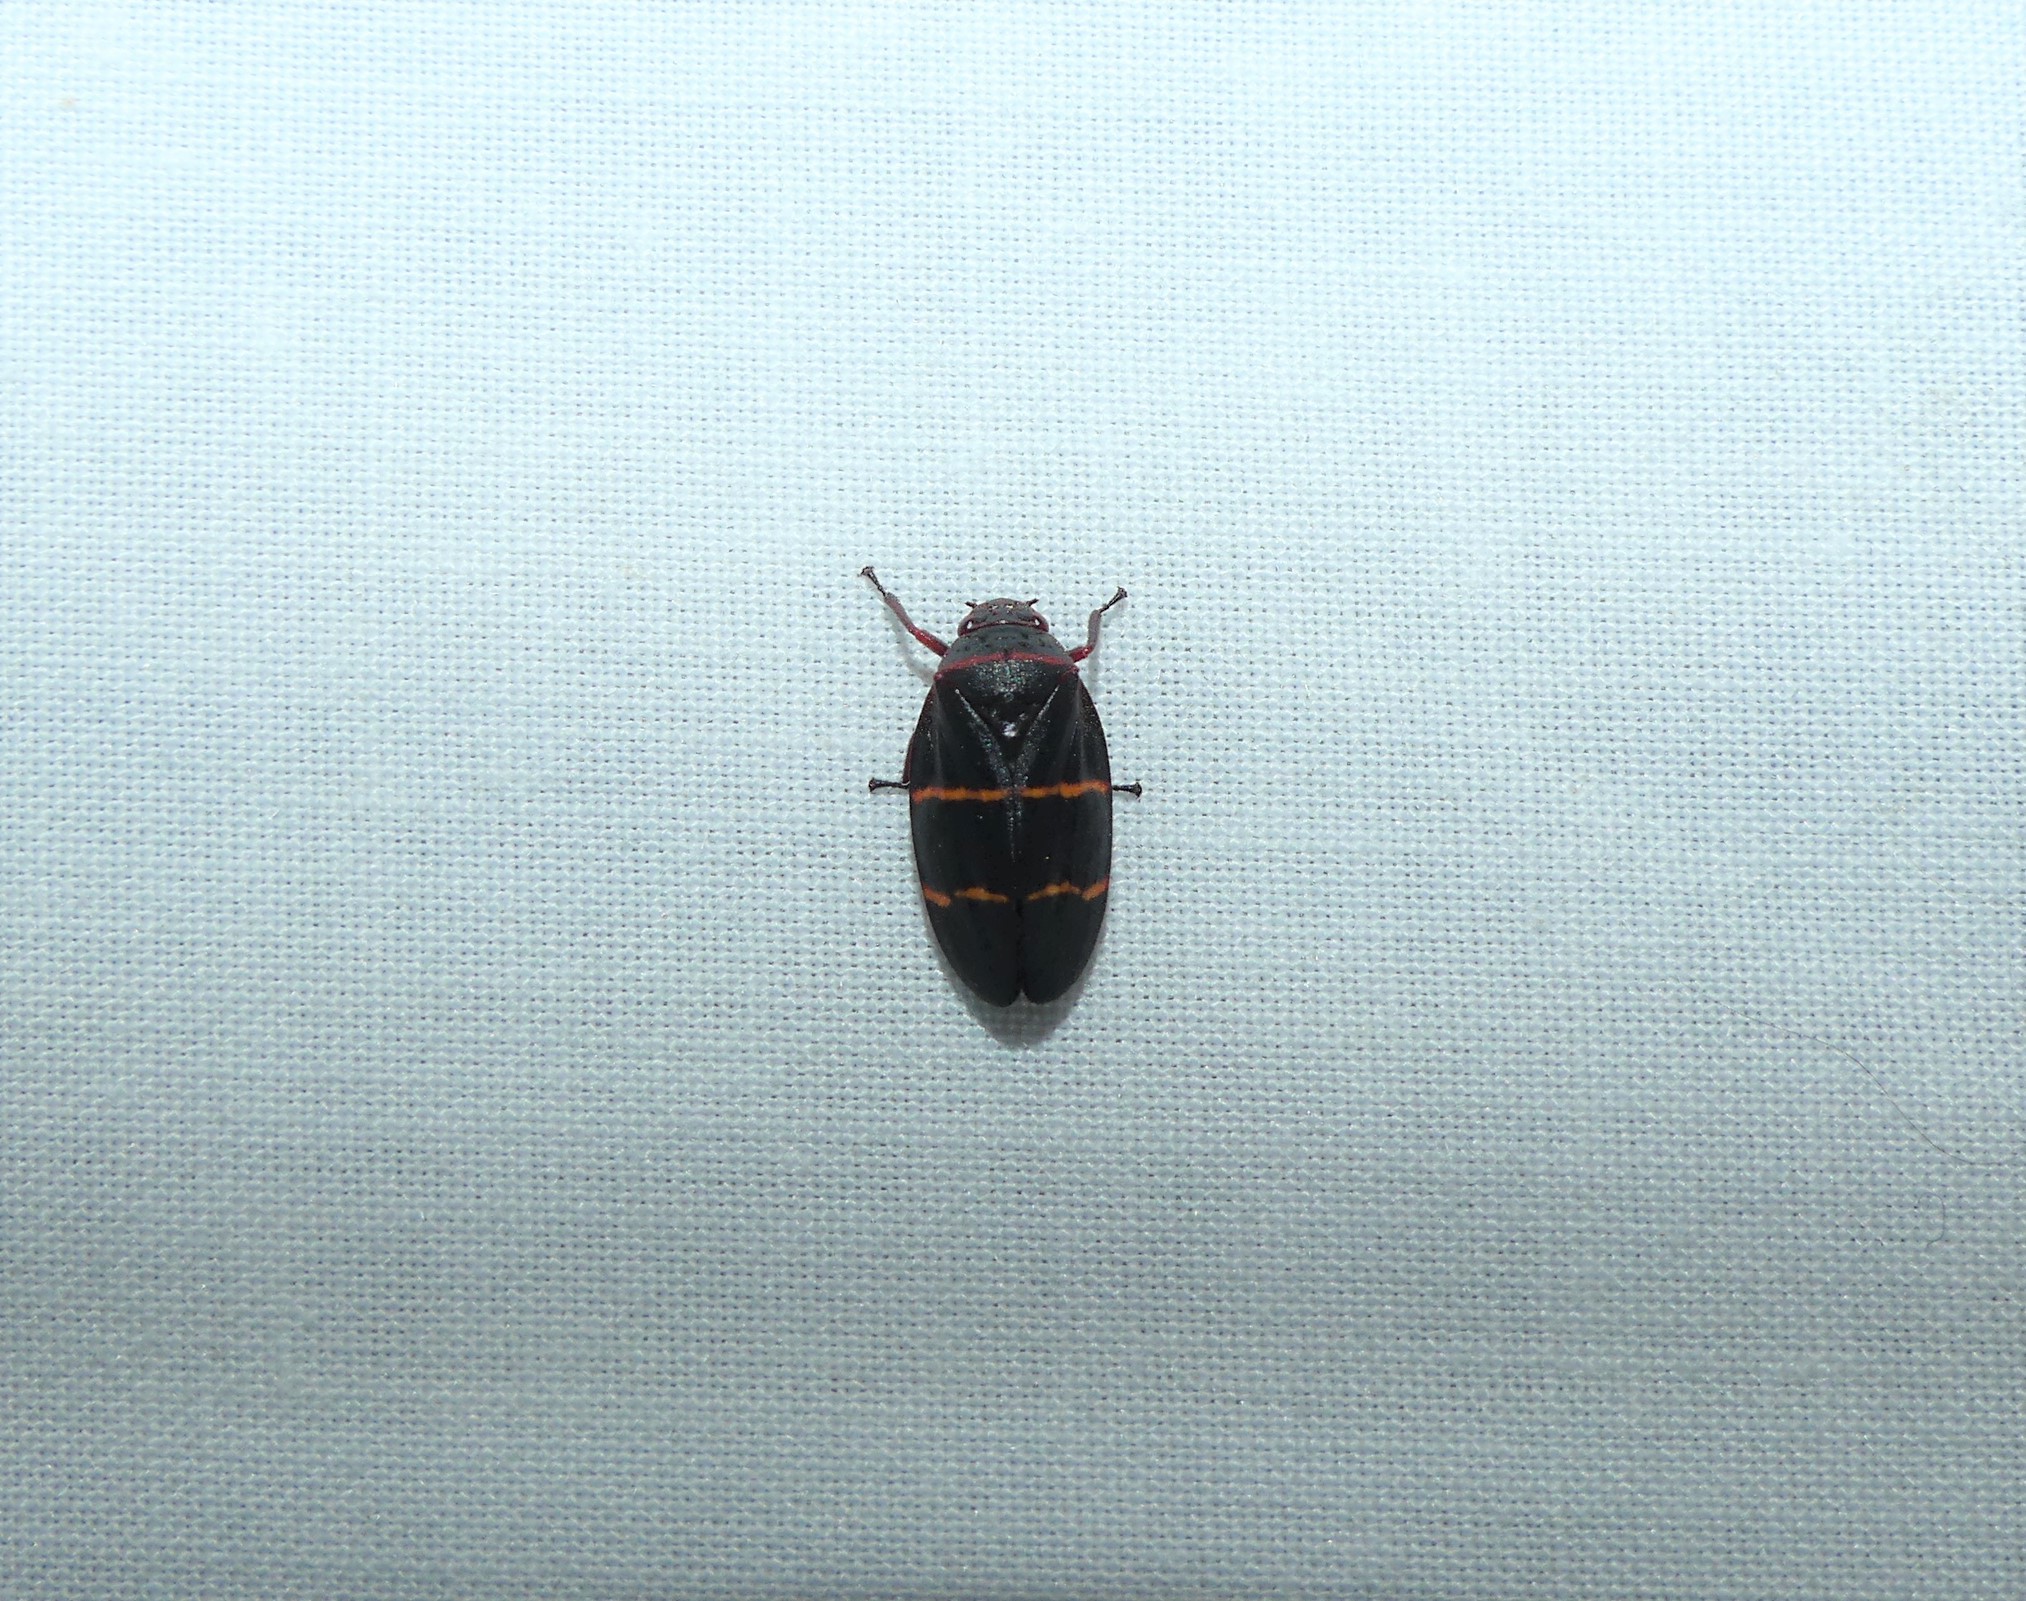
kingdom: Animalia
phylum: Arthropoda
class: Insecta
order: Hemiptera
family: Cercopidae
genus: Prosapia
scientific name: Prosapia bicincta
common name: Twolined spittlebug
